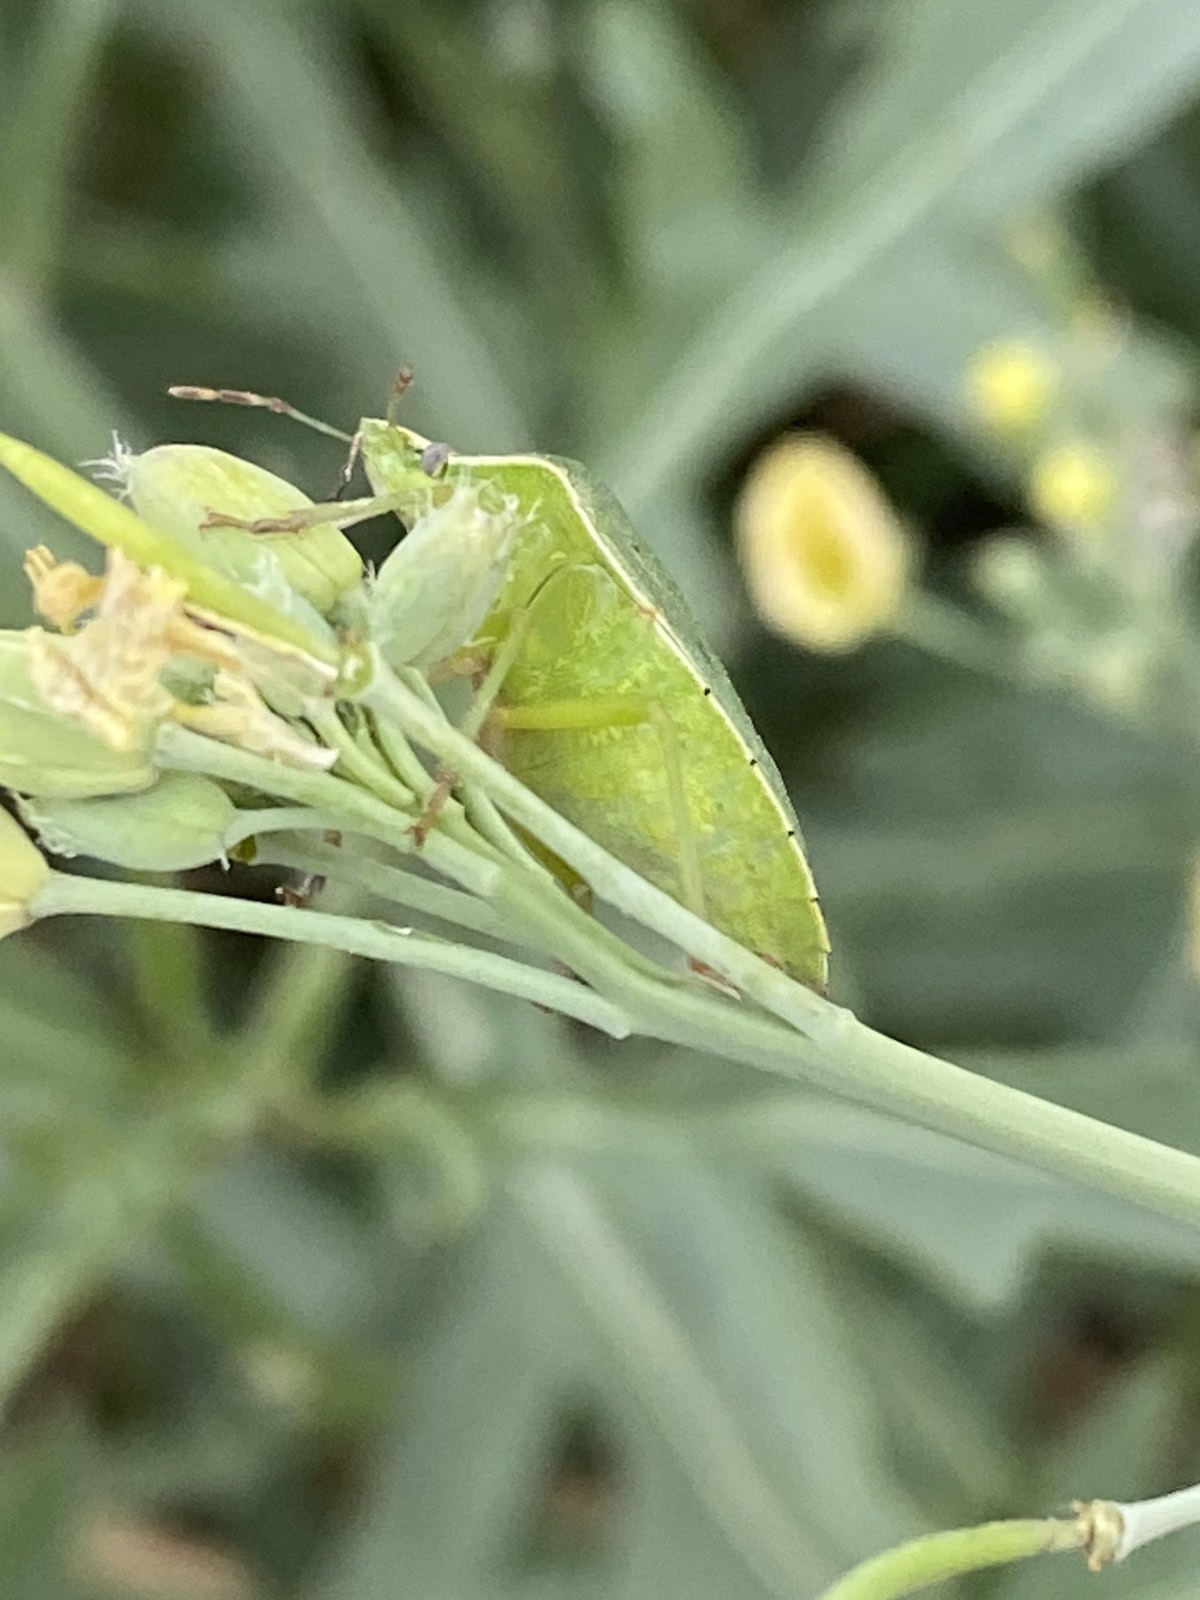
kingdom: Animalia
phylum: Arthropoda
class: Insecta
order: Hemiptera
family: Pentatomidae
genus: Nezara
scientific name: Nezara viridula
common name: Southern green stink bug
